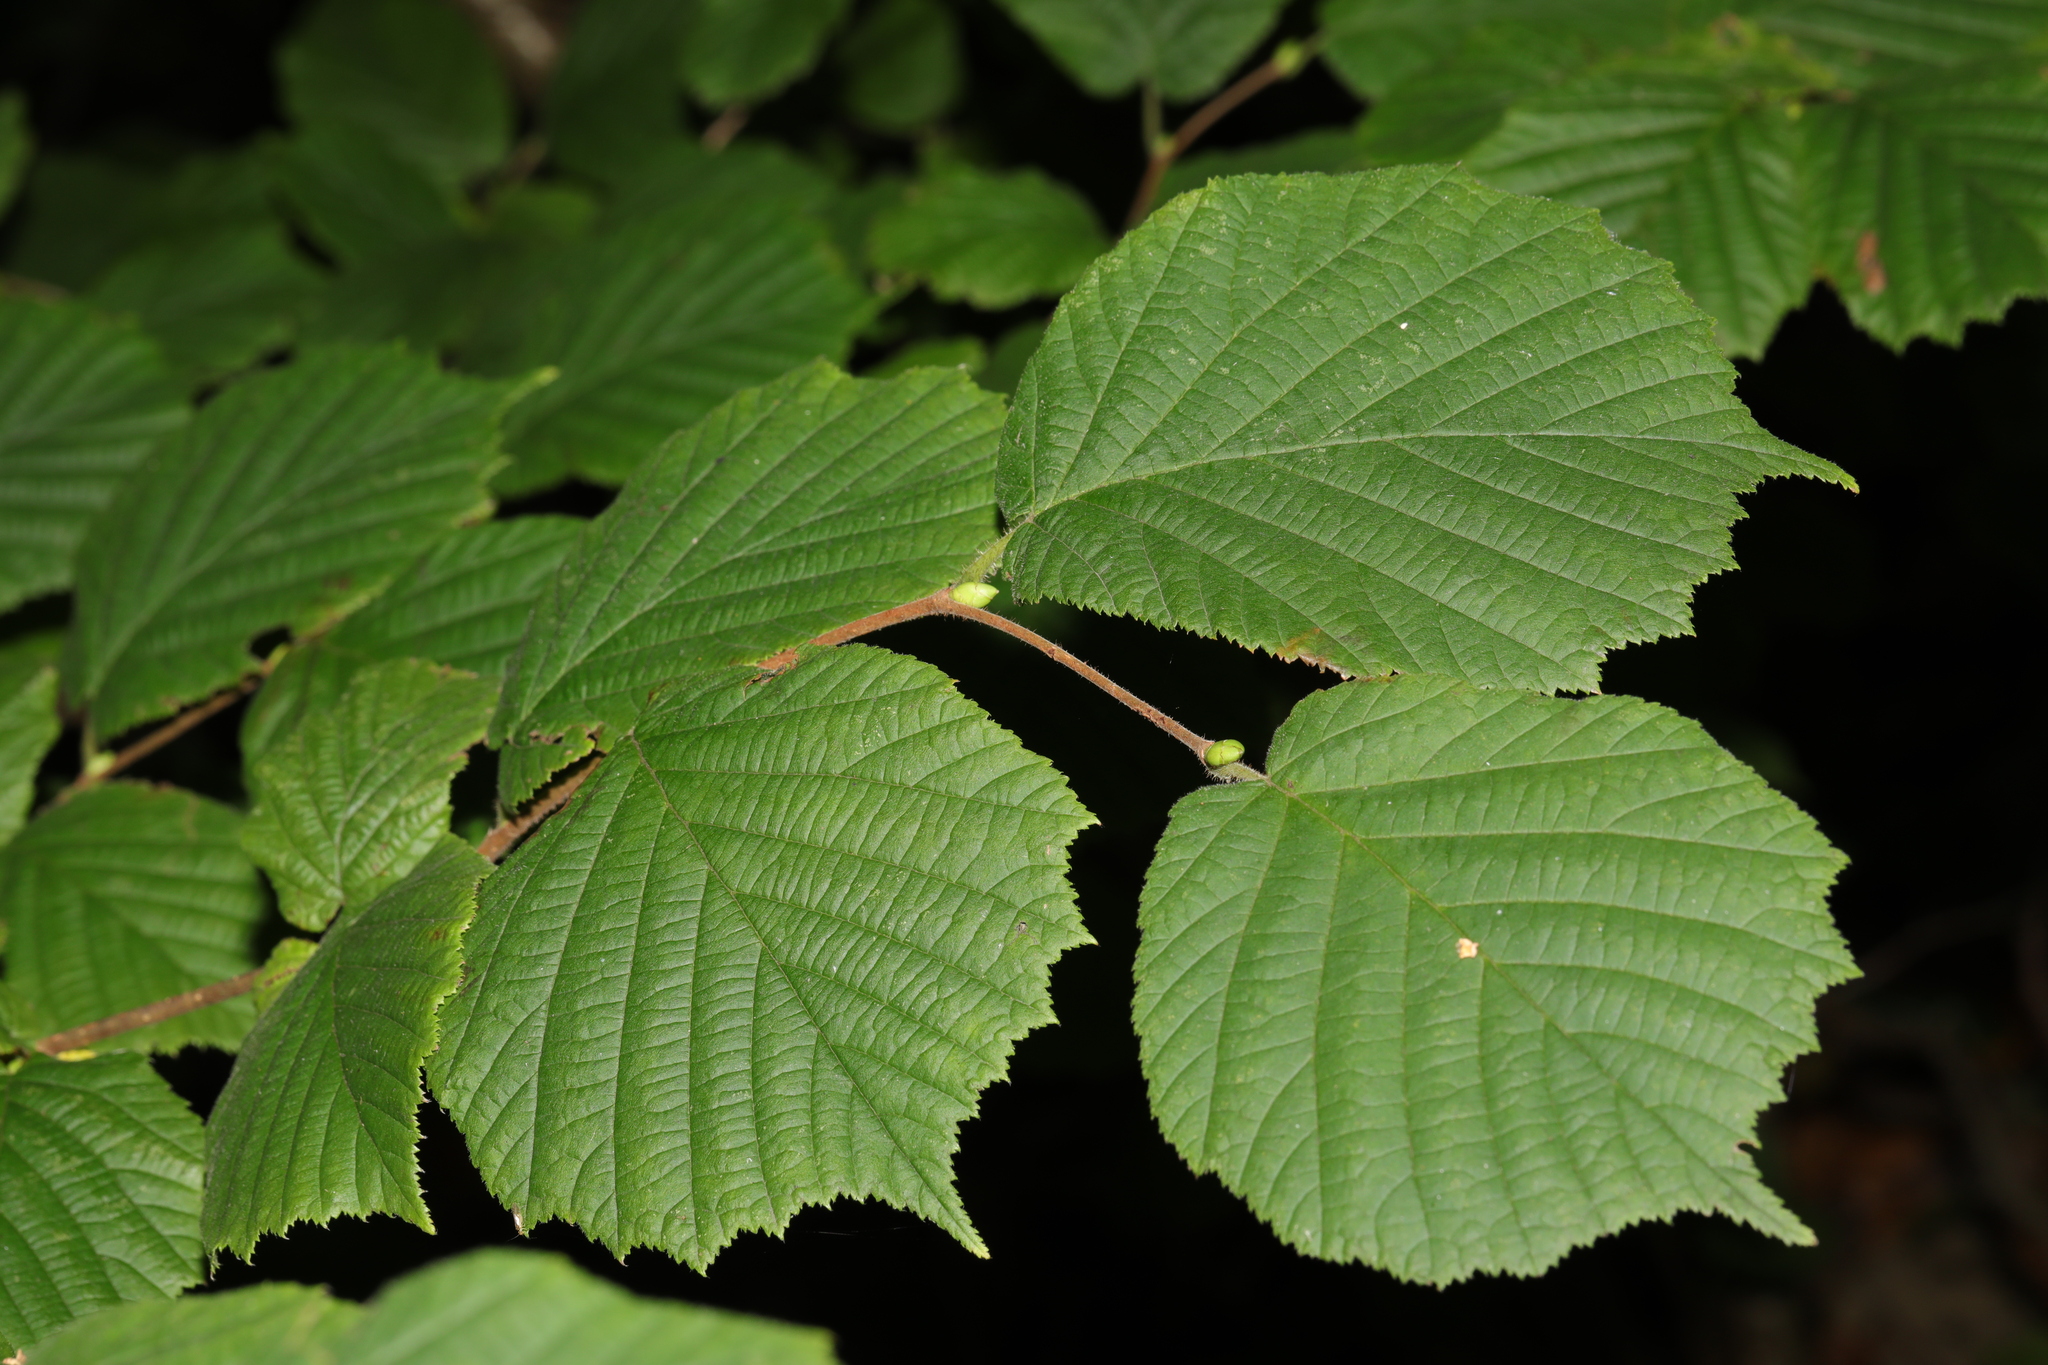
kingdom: Plantae
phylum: Tracheophyta
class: Magnoliopsida
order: Fagales
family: Betulaceae
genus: Corylus
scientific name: Corylus avellana
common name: European hazel
